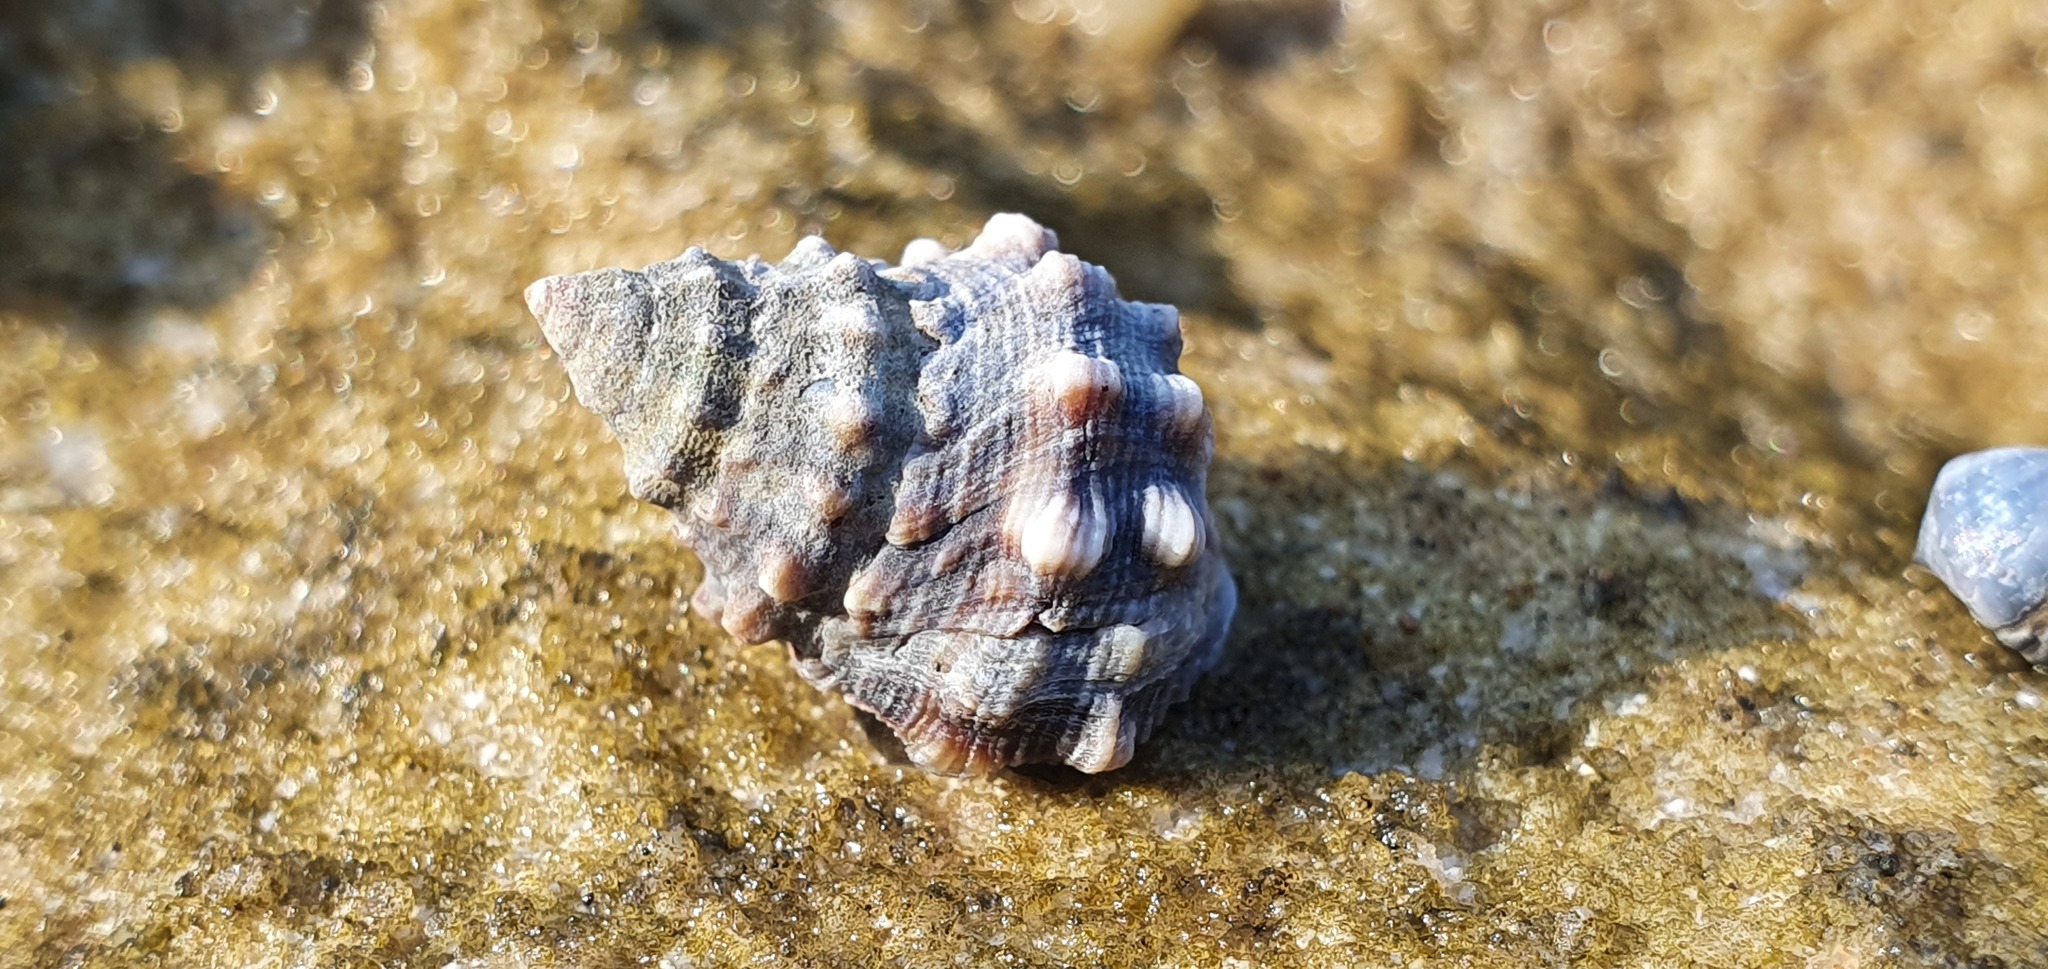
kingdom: Animalia
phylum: Mollusca
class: Gastropoda
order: Littorinimorpha
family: Littorinidae
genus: Nodilittorina
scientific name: Nodilittorina pyramidalis
